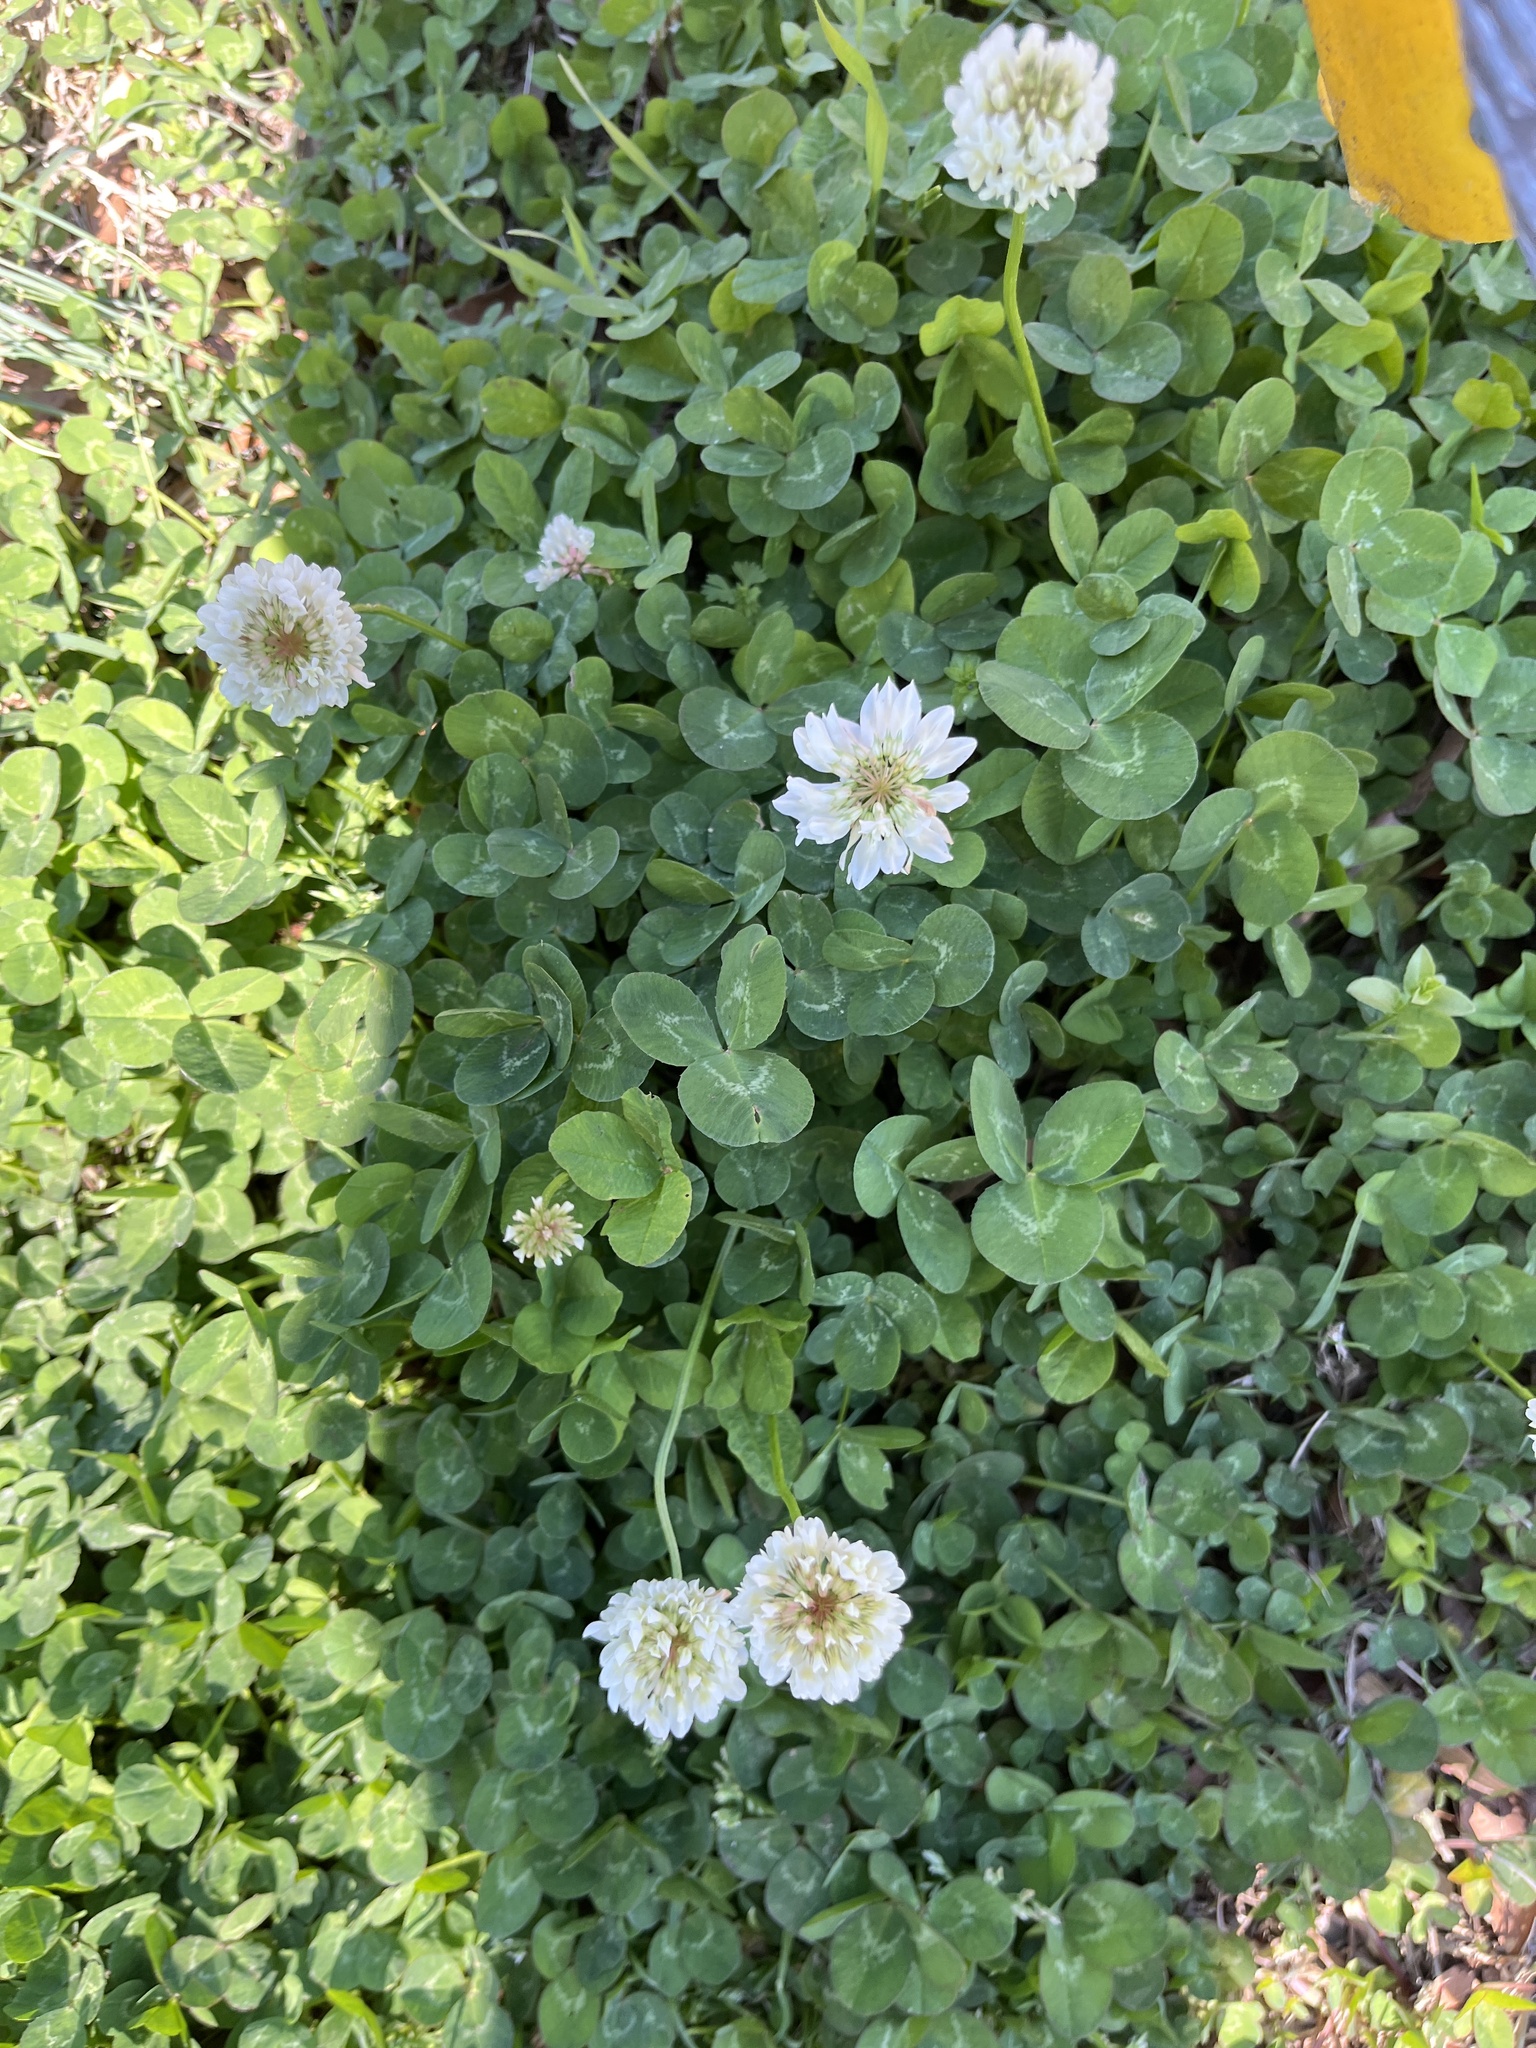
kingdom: Plantae
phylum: Tracheophyta
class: Magnoliopsida
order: Fabales
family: Fabaceae
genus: Trifolium
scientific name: Trifolium repens
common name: White clover
